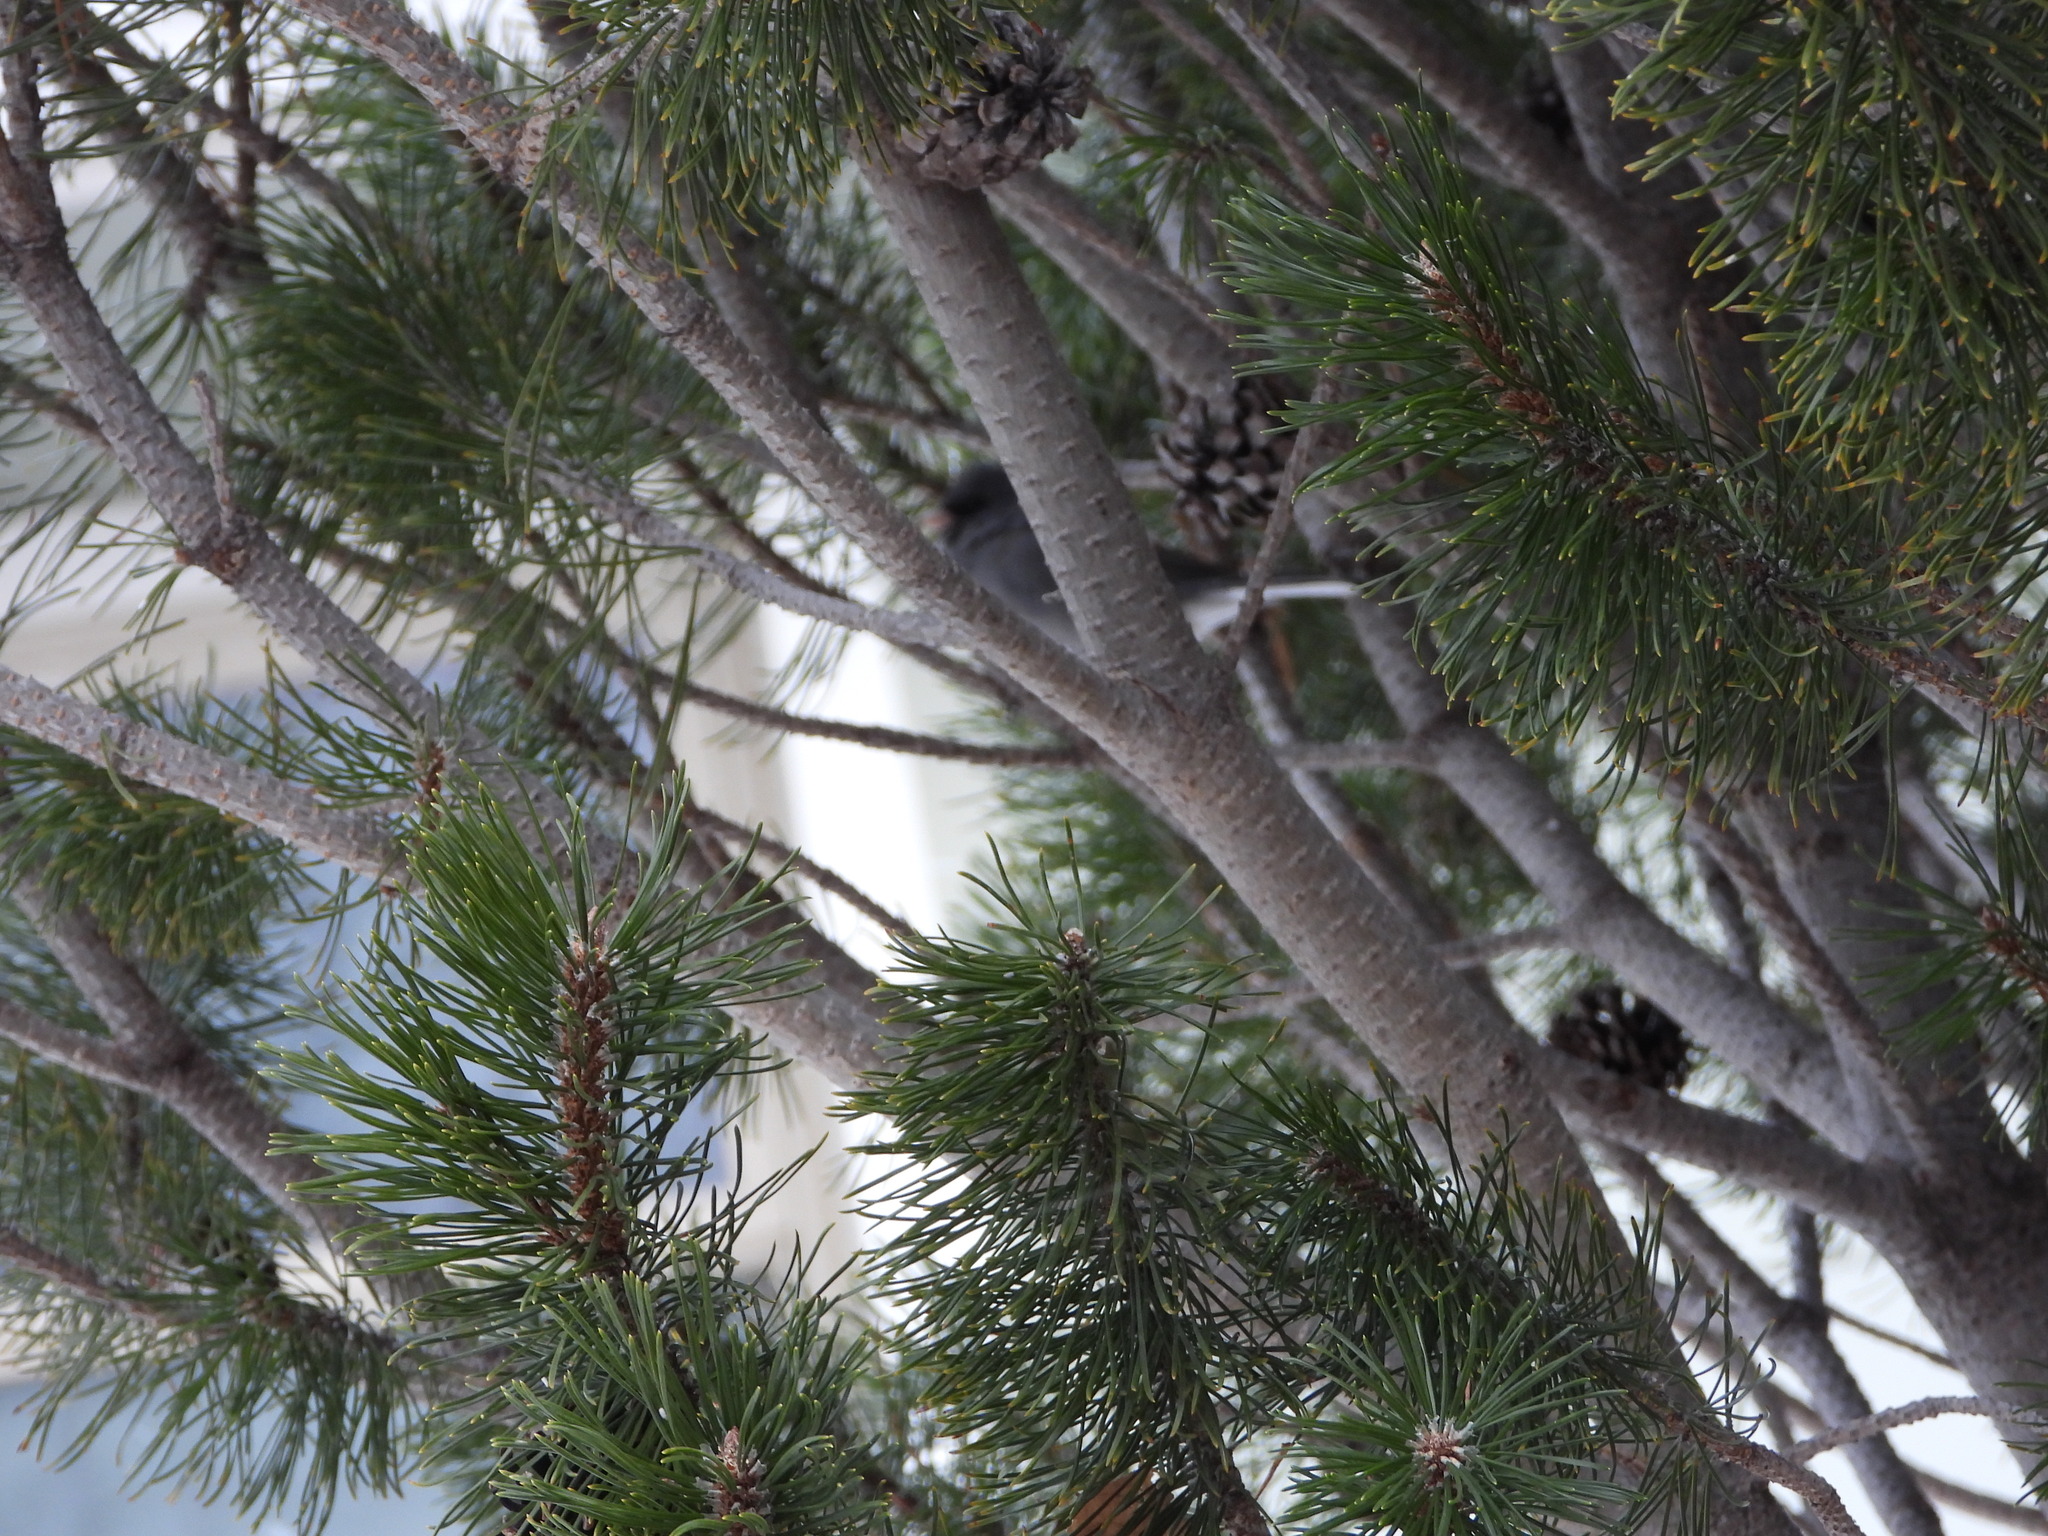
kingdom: Animalia
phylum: Chordata
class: Aves
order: Passeriformes
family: Passerellidae
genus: Junco
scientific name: Junco hyemalis
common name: Dark-eyed junco
